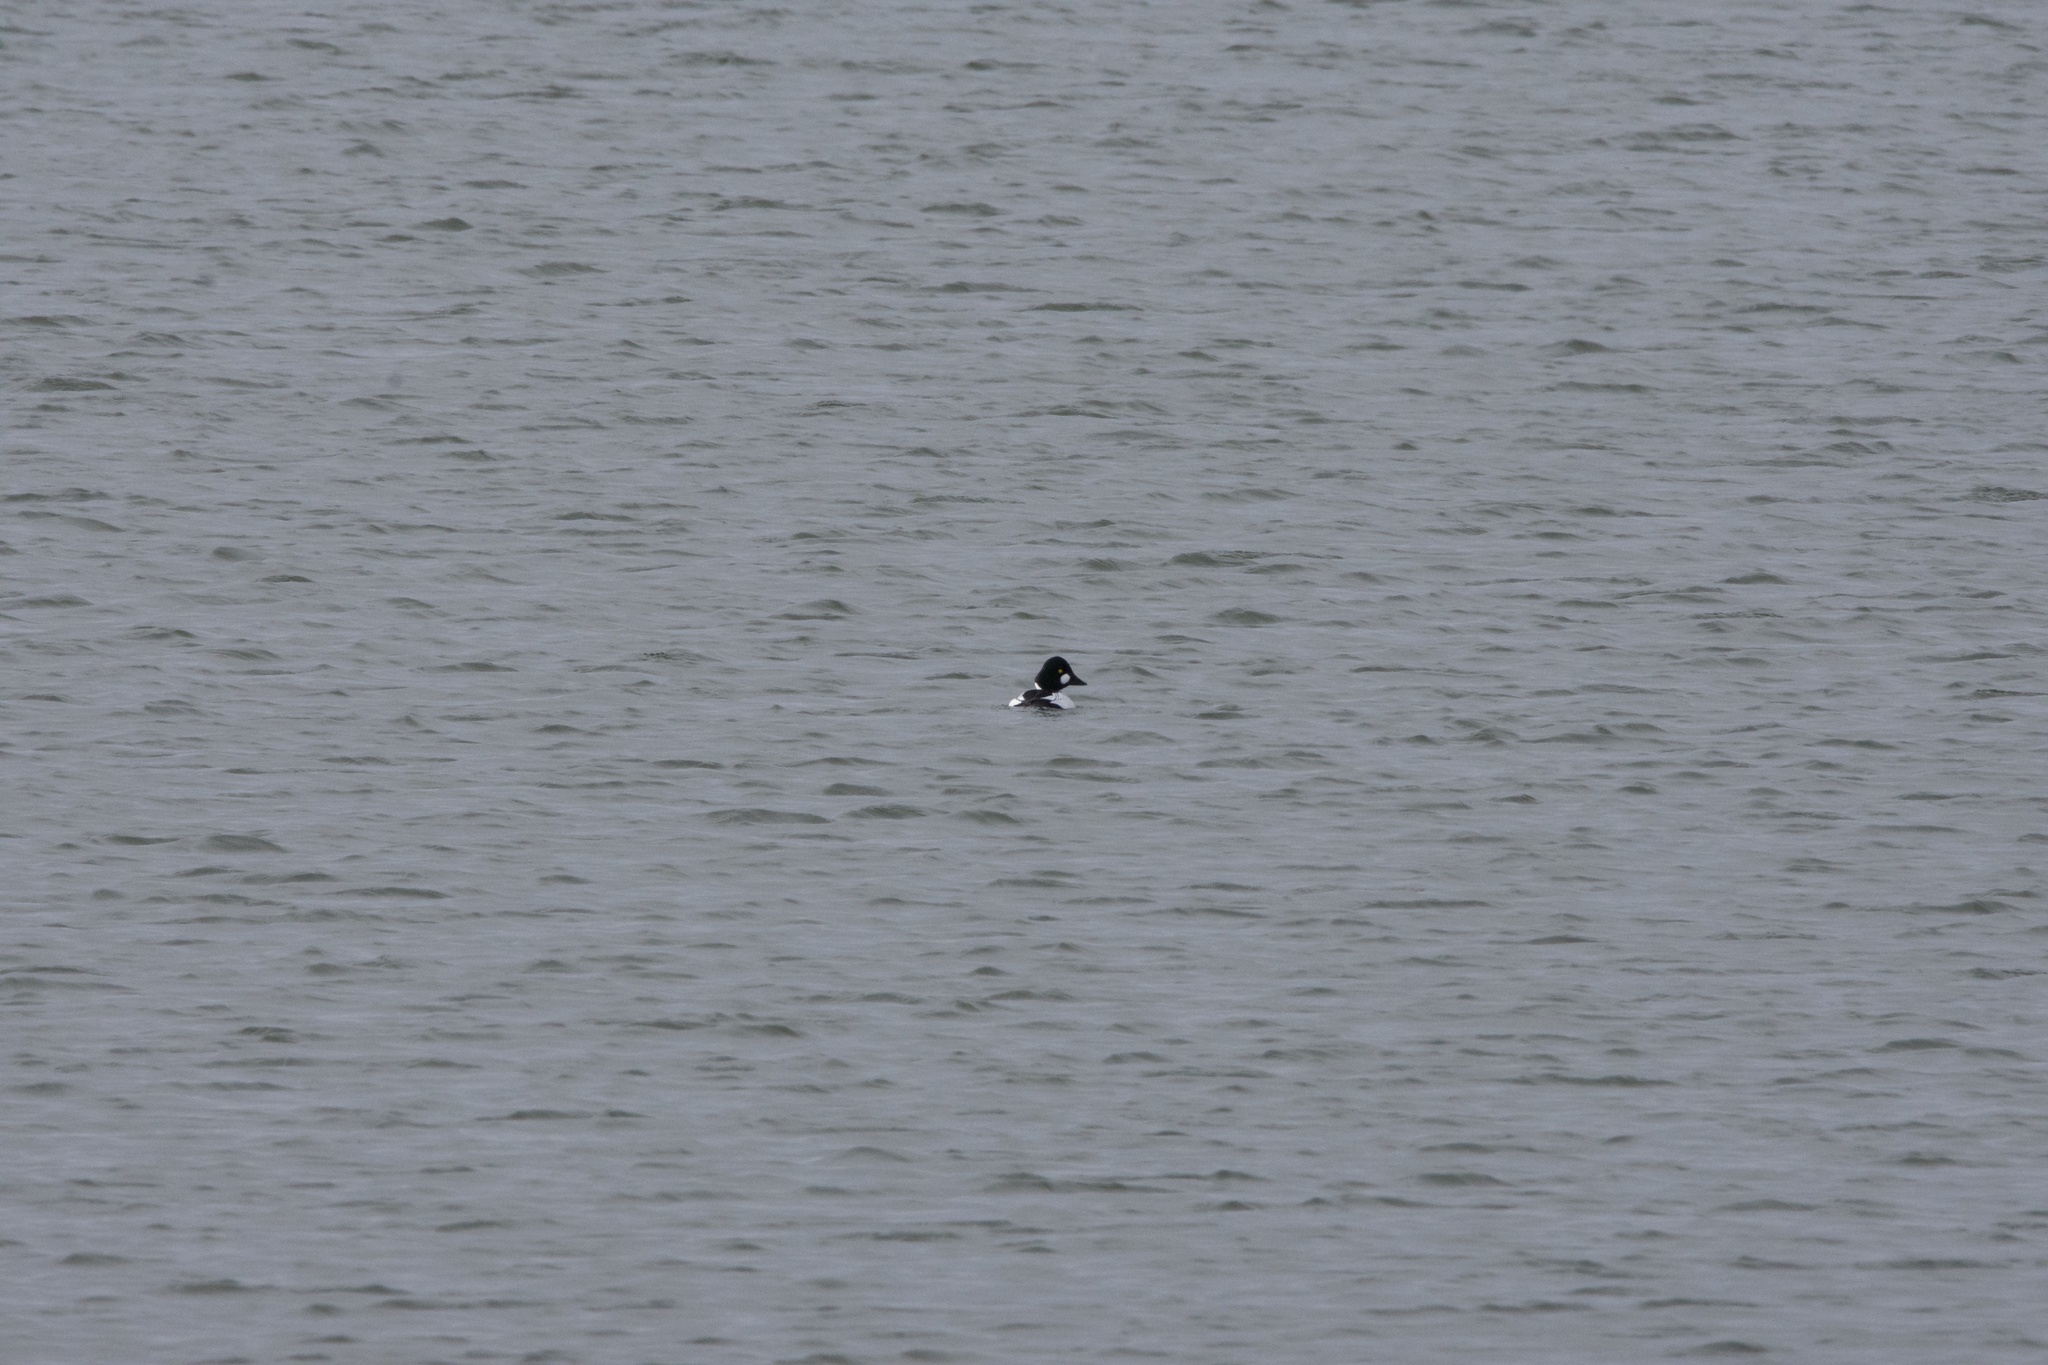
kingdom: Animalia
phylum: Chordata
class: Aves
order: Anseriformes
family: Anatidae
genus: Bucephala
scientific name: Bucephala clangula
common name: Common goldeneye
